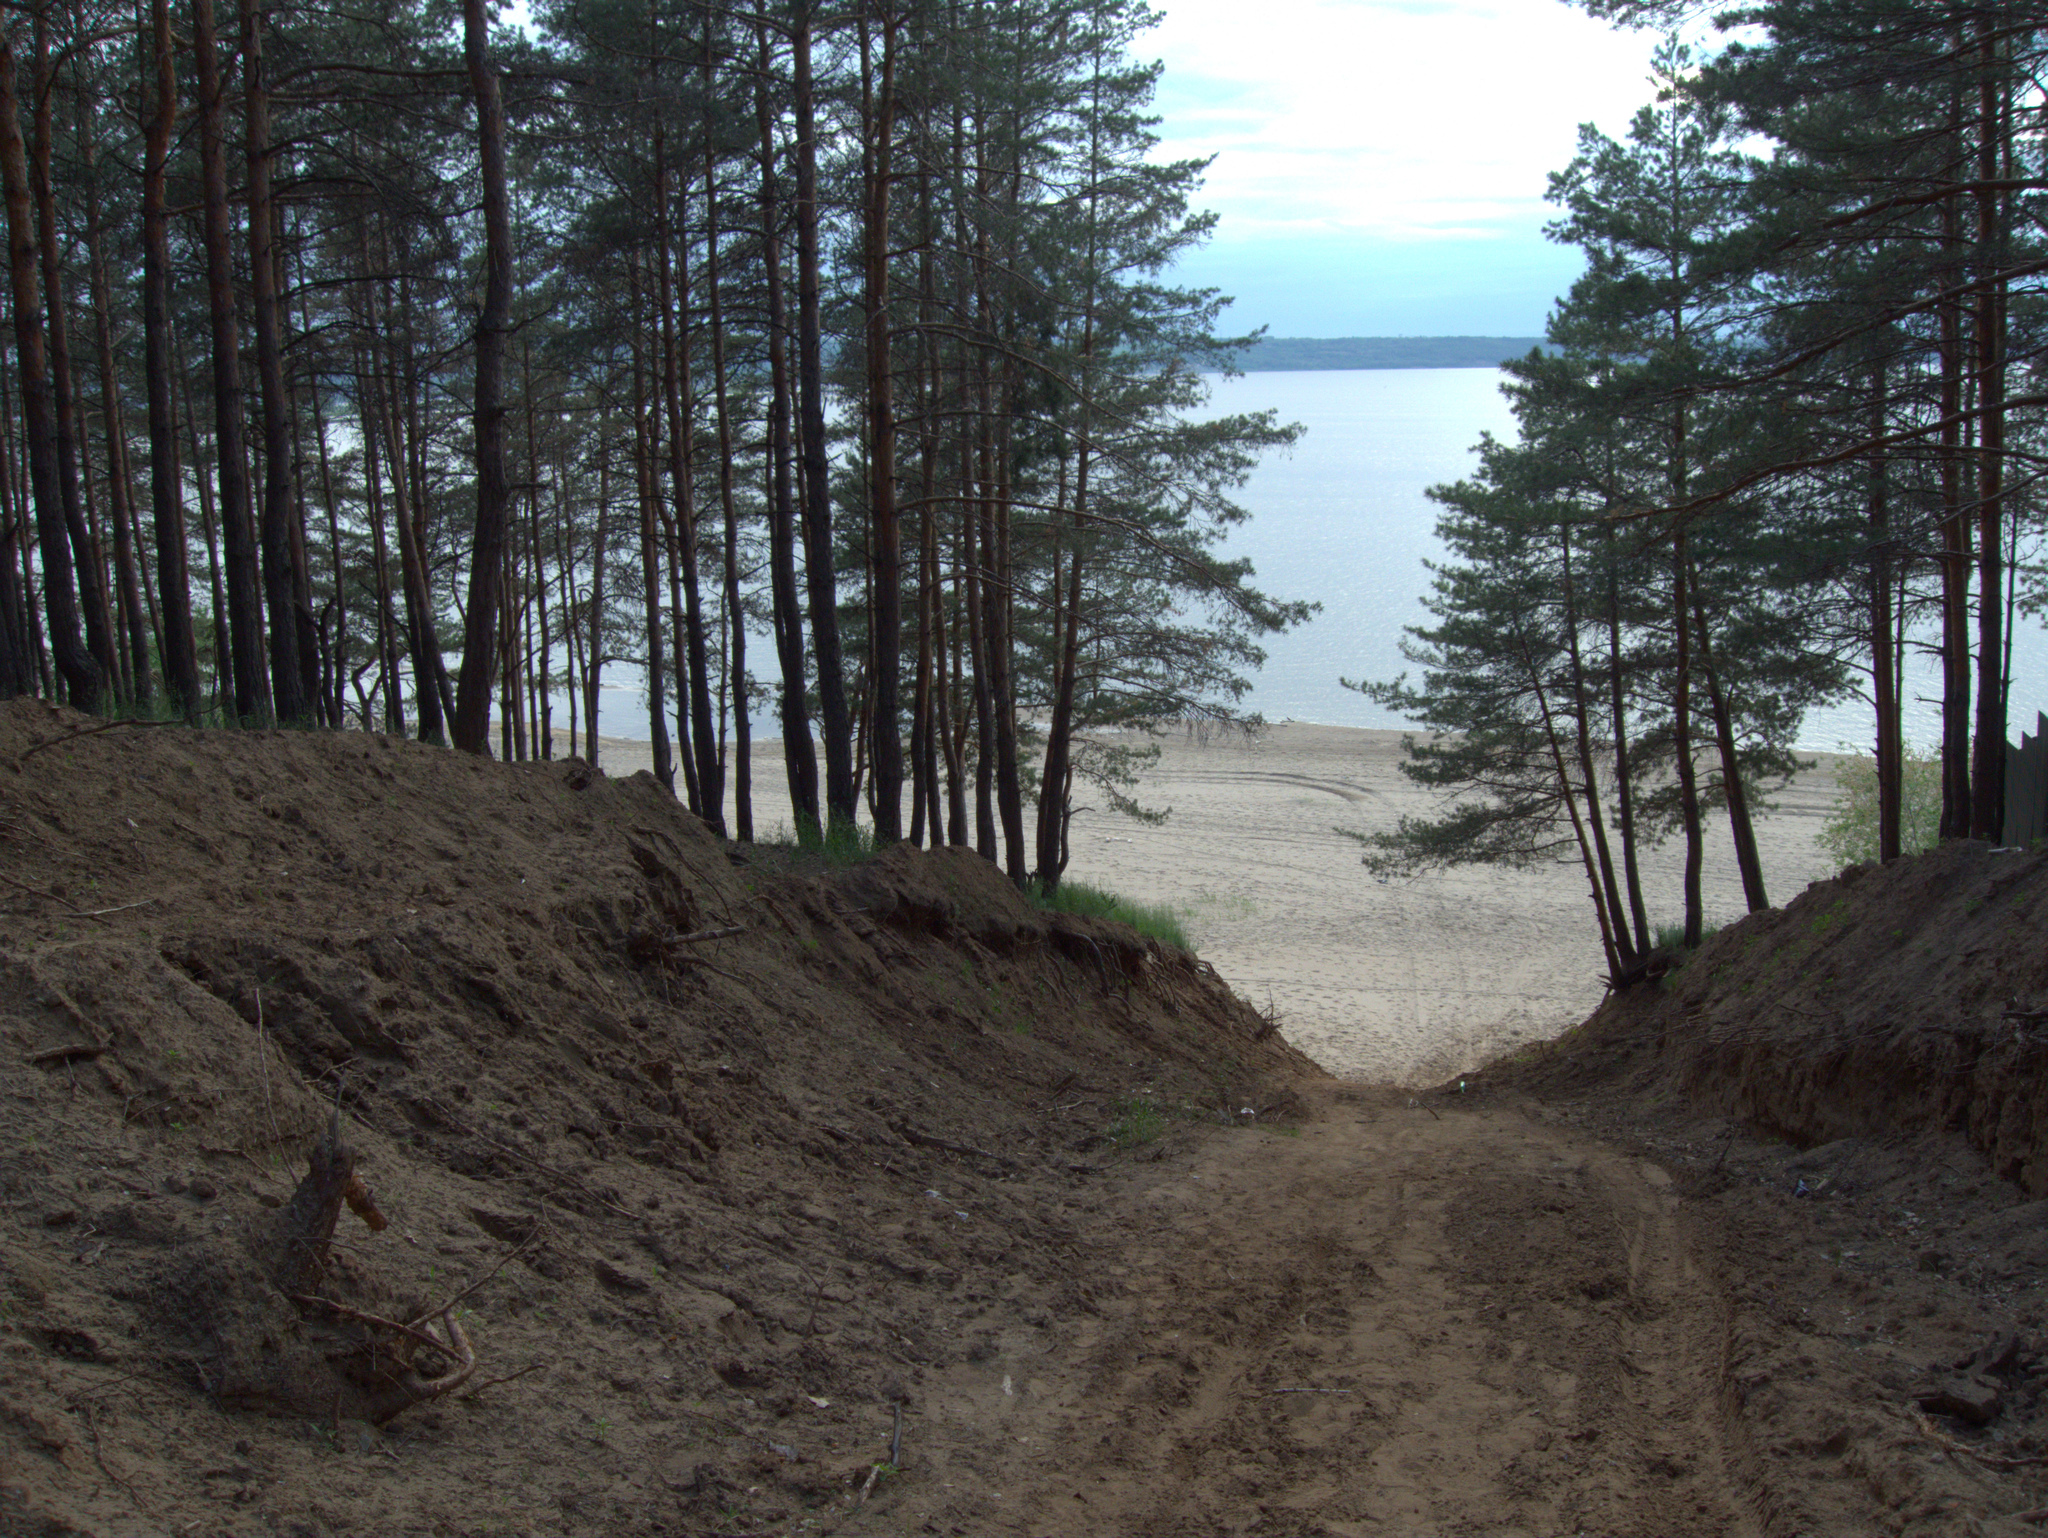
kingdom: Plantae
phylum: Tracheophyta
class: Pinopsida
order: Pinales
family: Pinaceae
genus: Pinus
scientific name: Pinus sylvestris
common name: Scots pine
